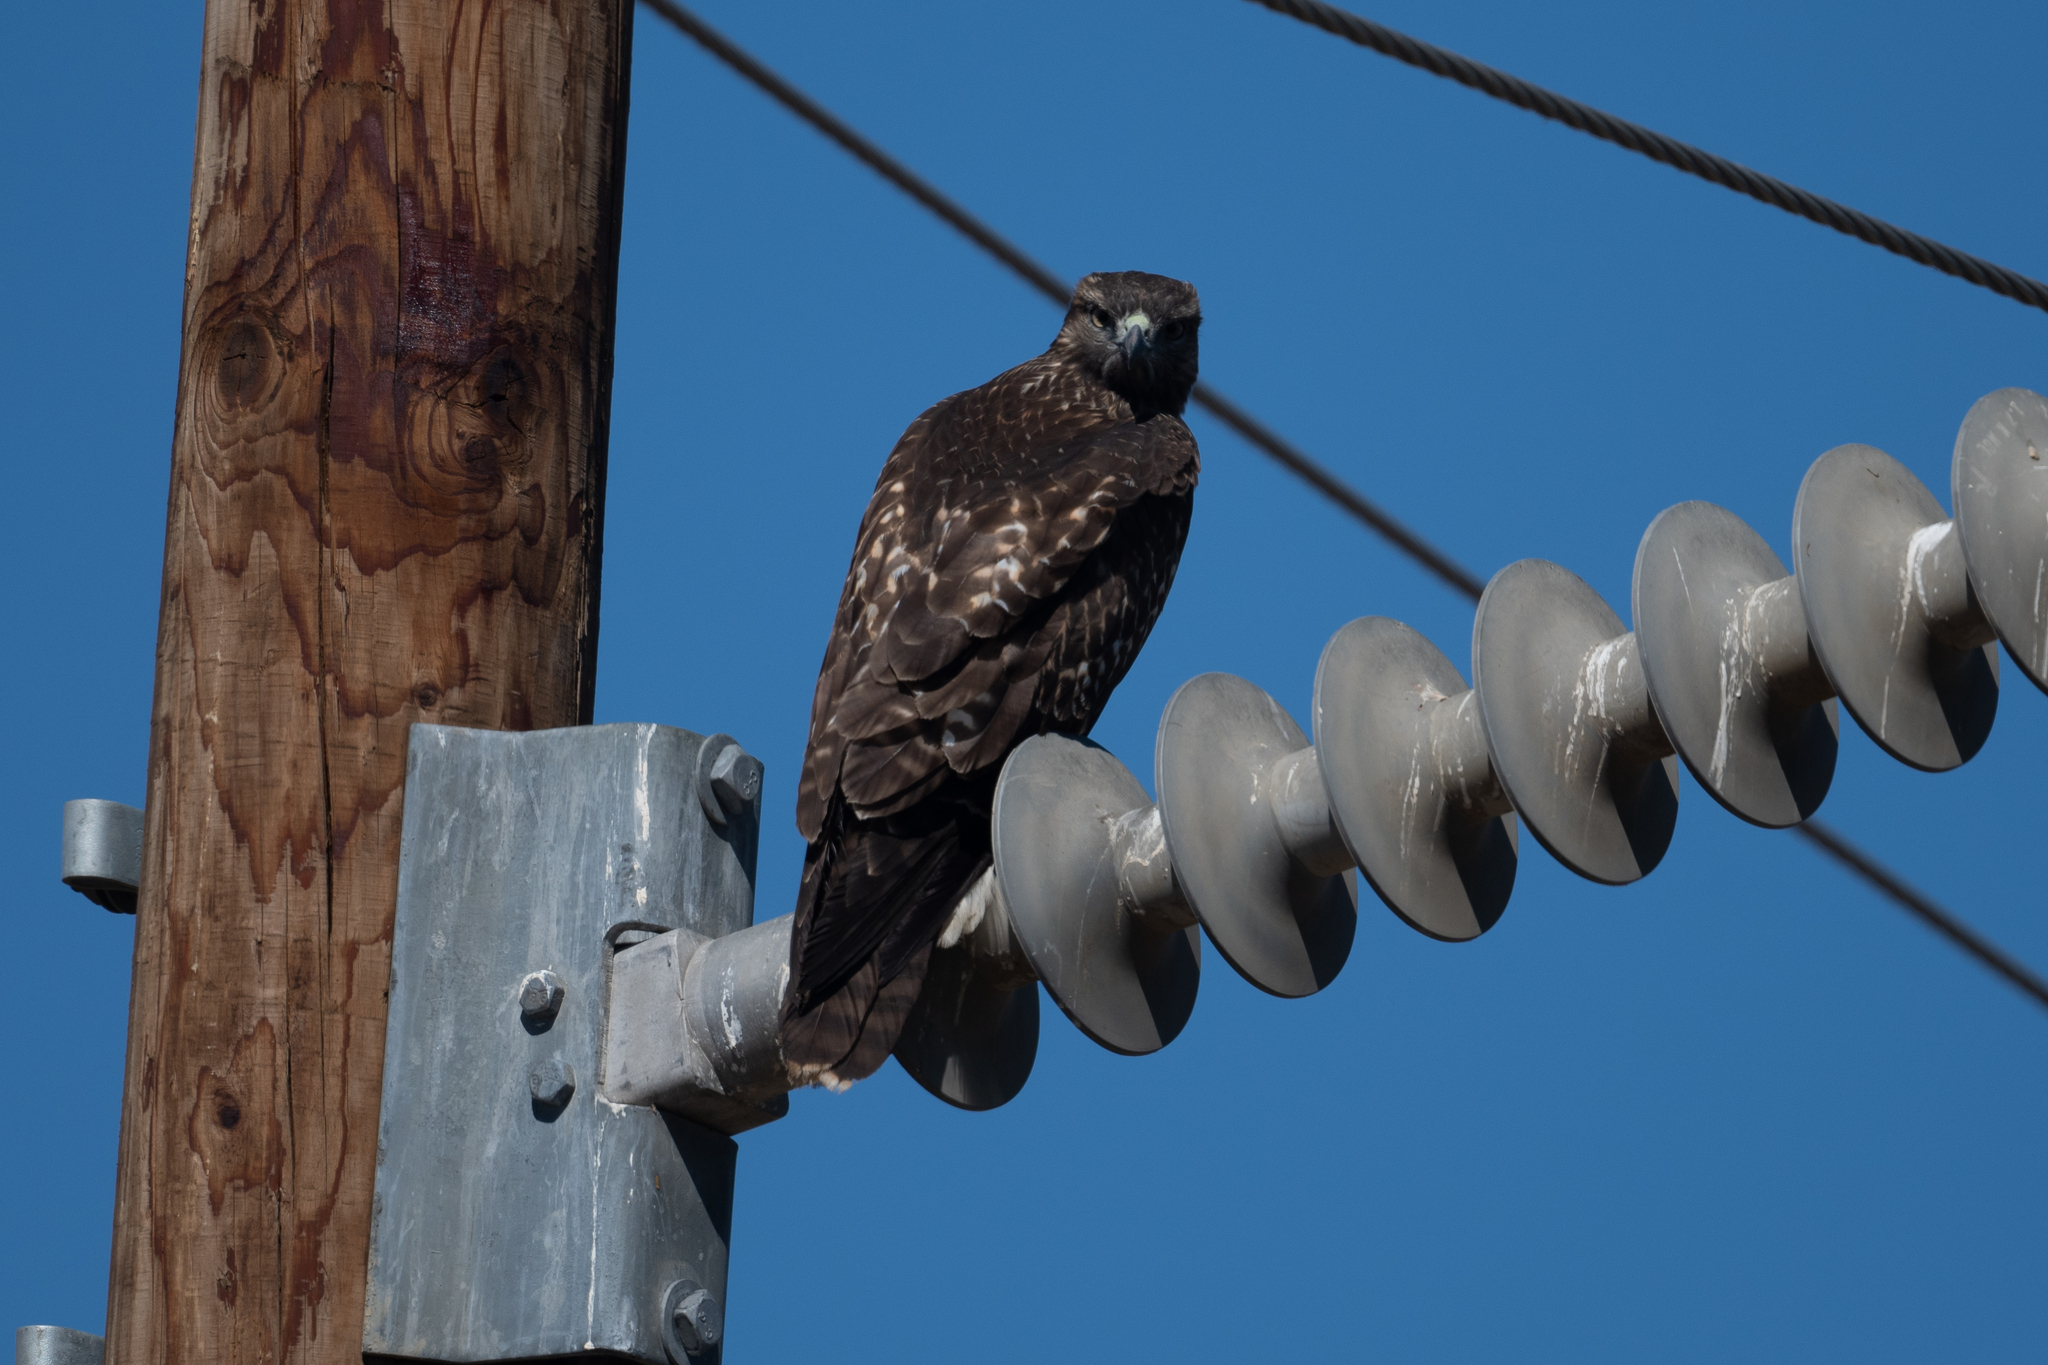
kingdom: Animalia
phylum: Chordata
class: Aves
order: Accipitriformes
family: Accipitridae
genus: Buteo
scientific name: Buteo jamaicensis
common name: Red-tailed hawk
